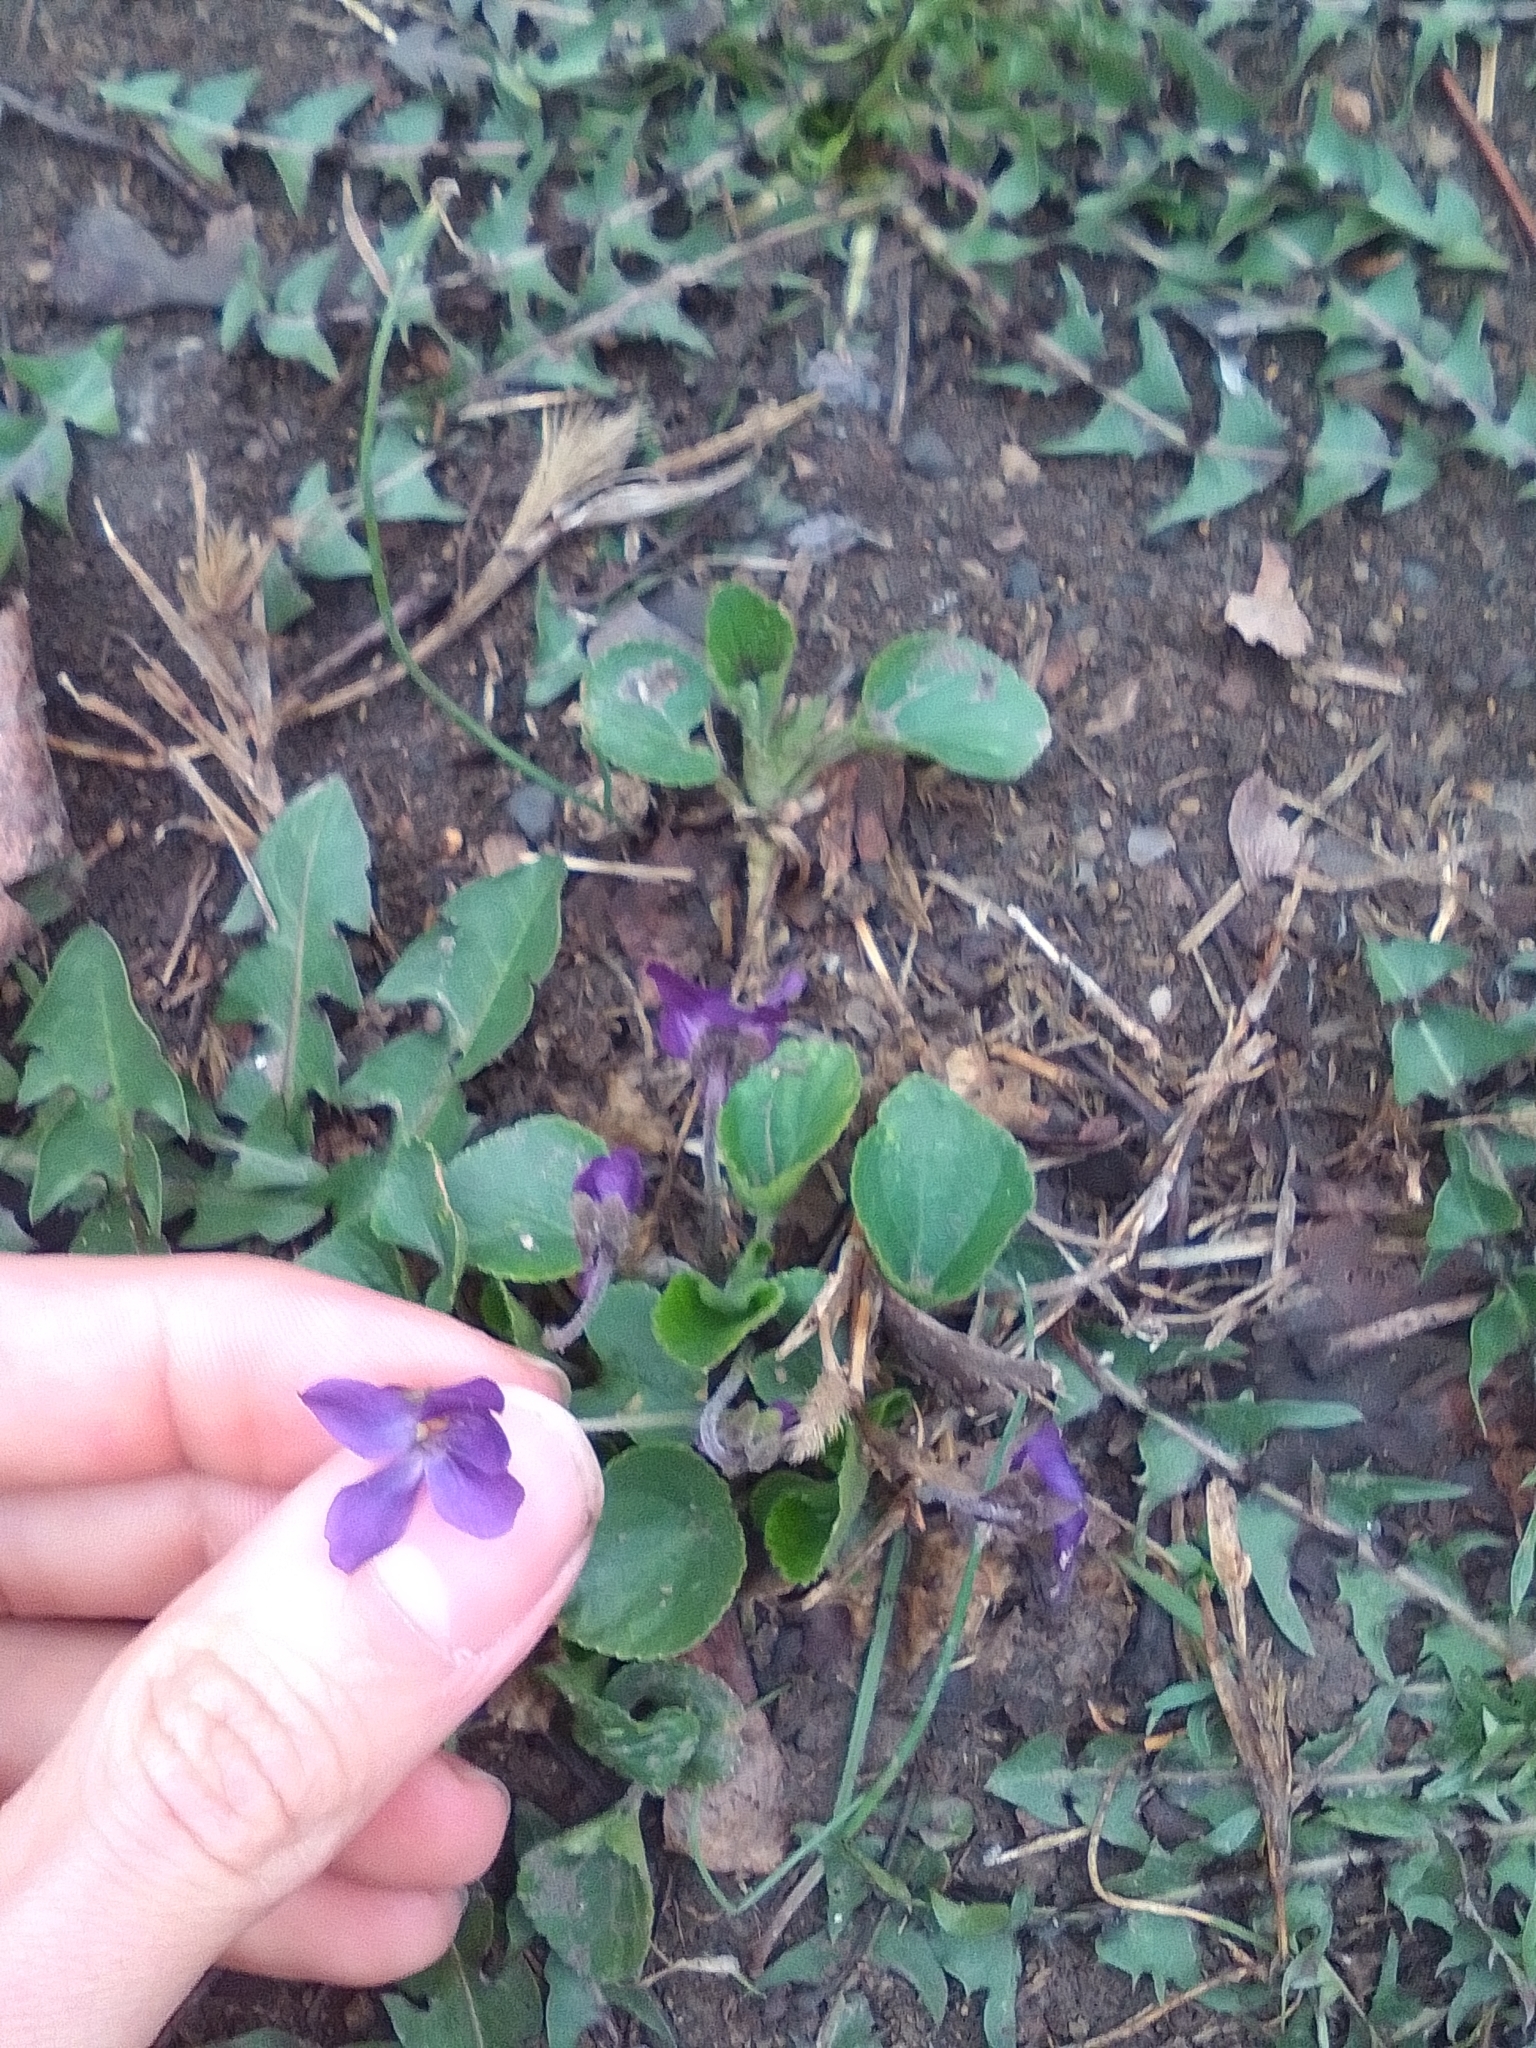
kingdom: Plantae
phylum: Tracheophyta
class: Magnoliopsida
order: Malpighiales
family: Violaceae
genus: Viola
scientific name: Viola odorata
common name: Sweet violet
